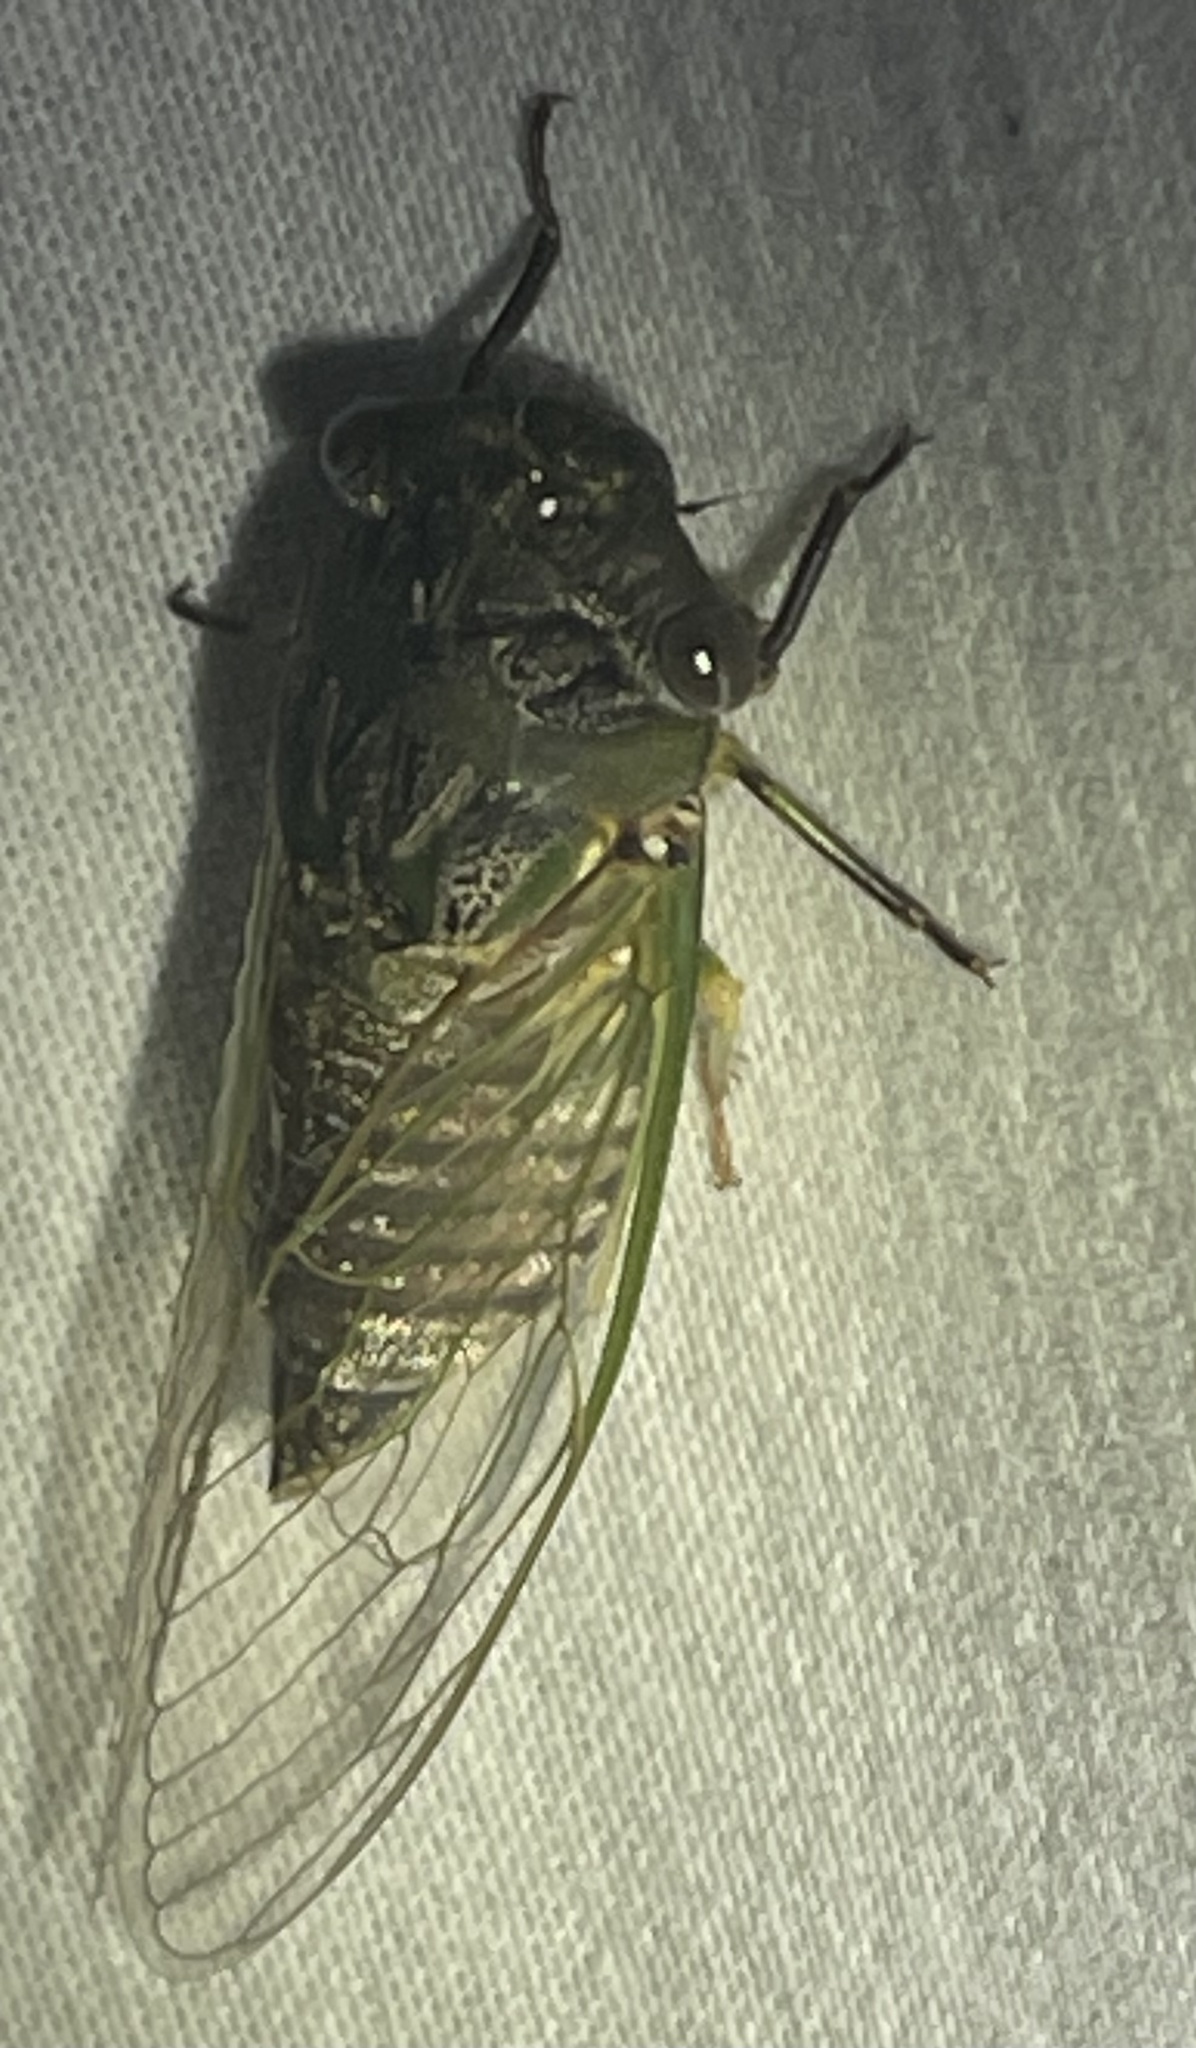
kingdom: Animalia
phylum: Arthropoda
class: Insecta
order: Hemiptera
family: Cicadidae
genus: Psaltoda
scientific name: Psaltoda plaga
